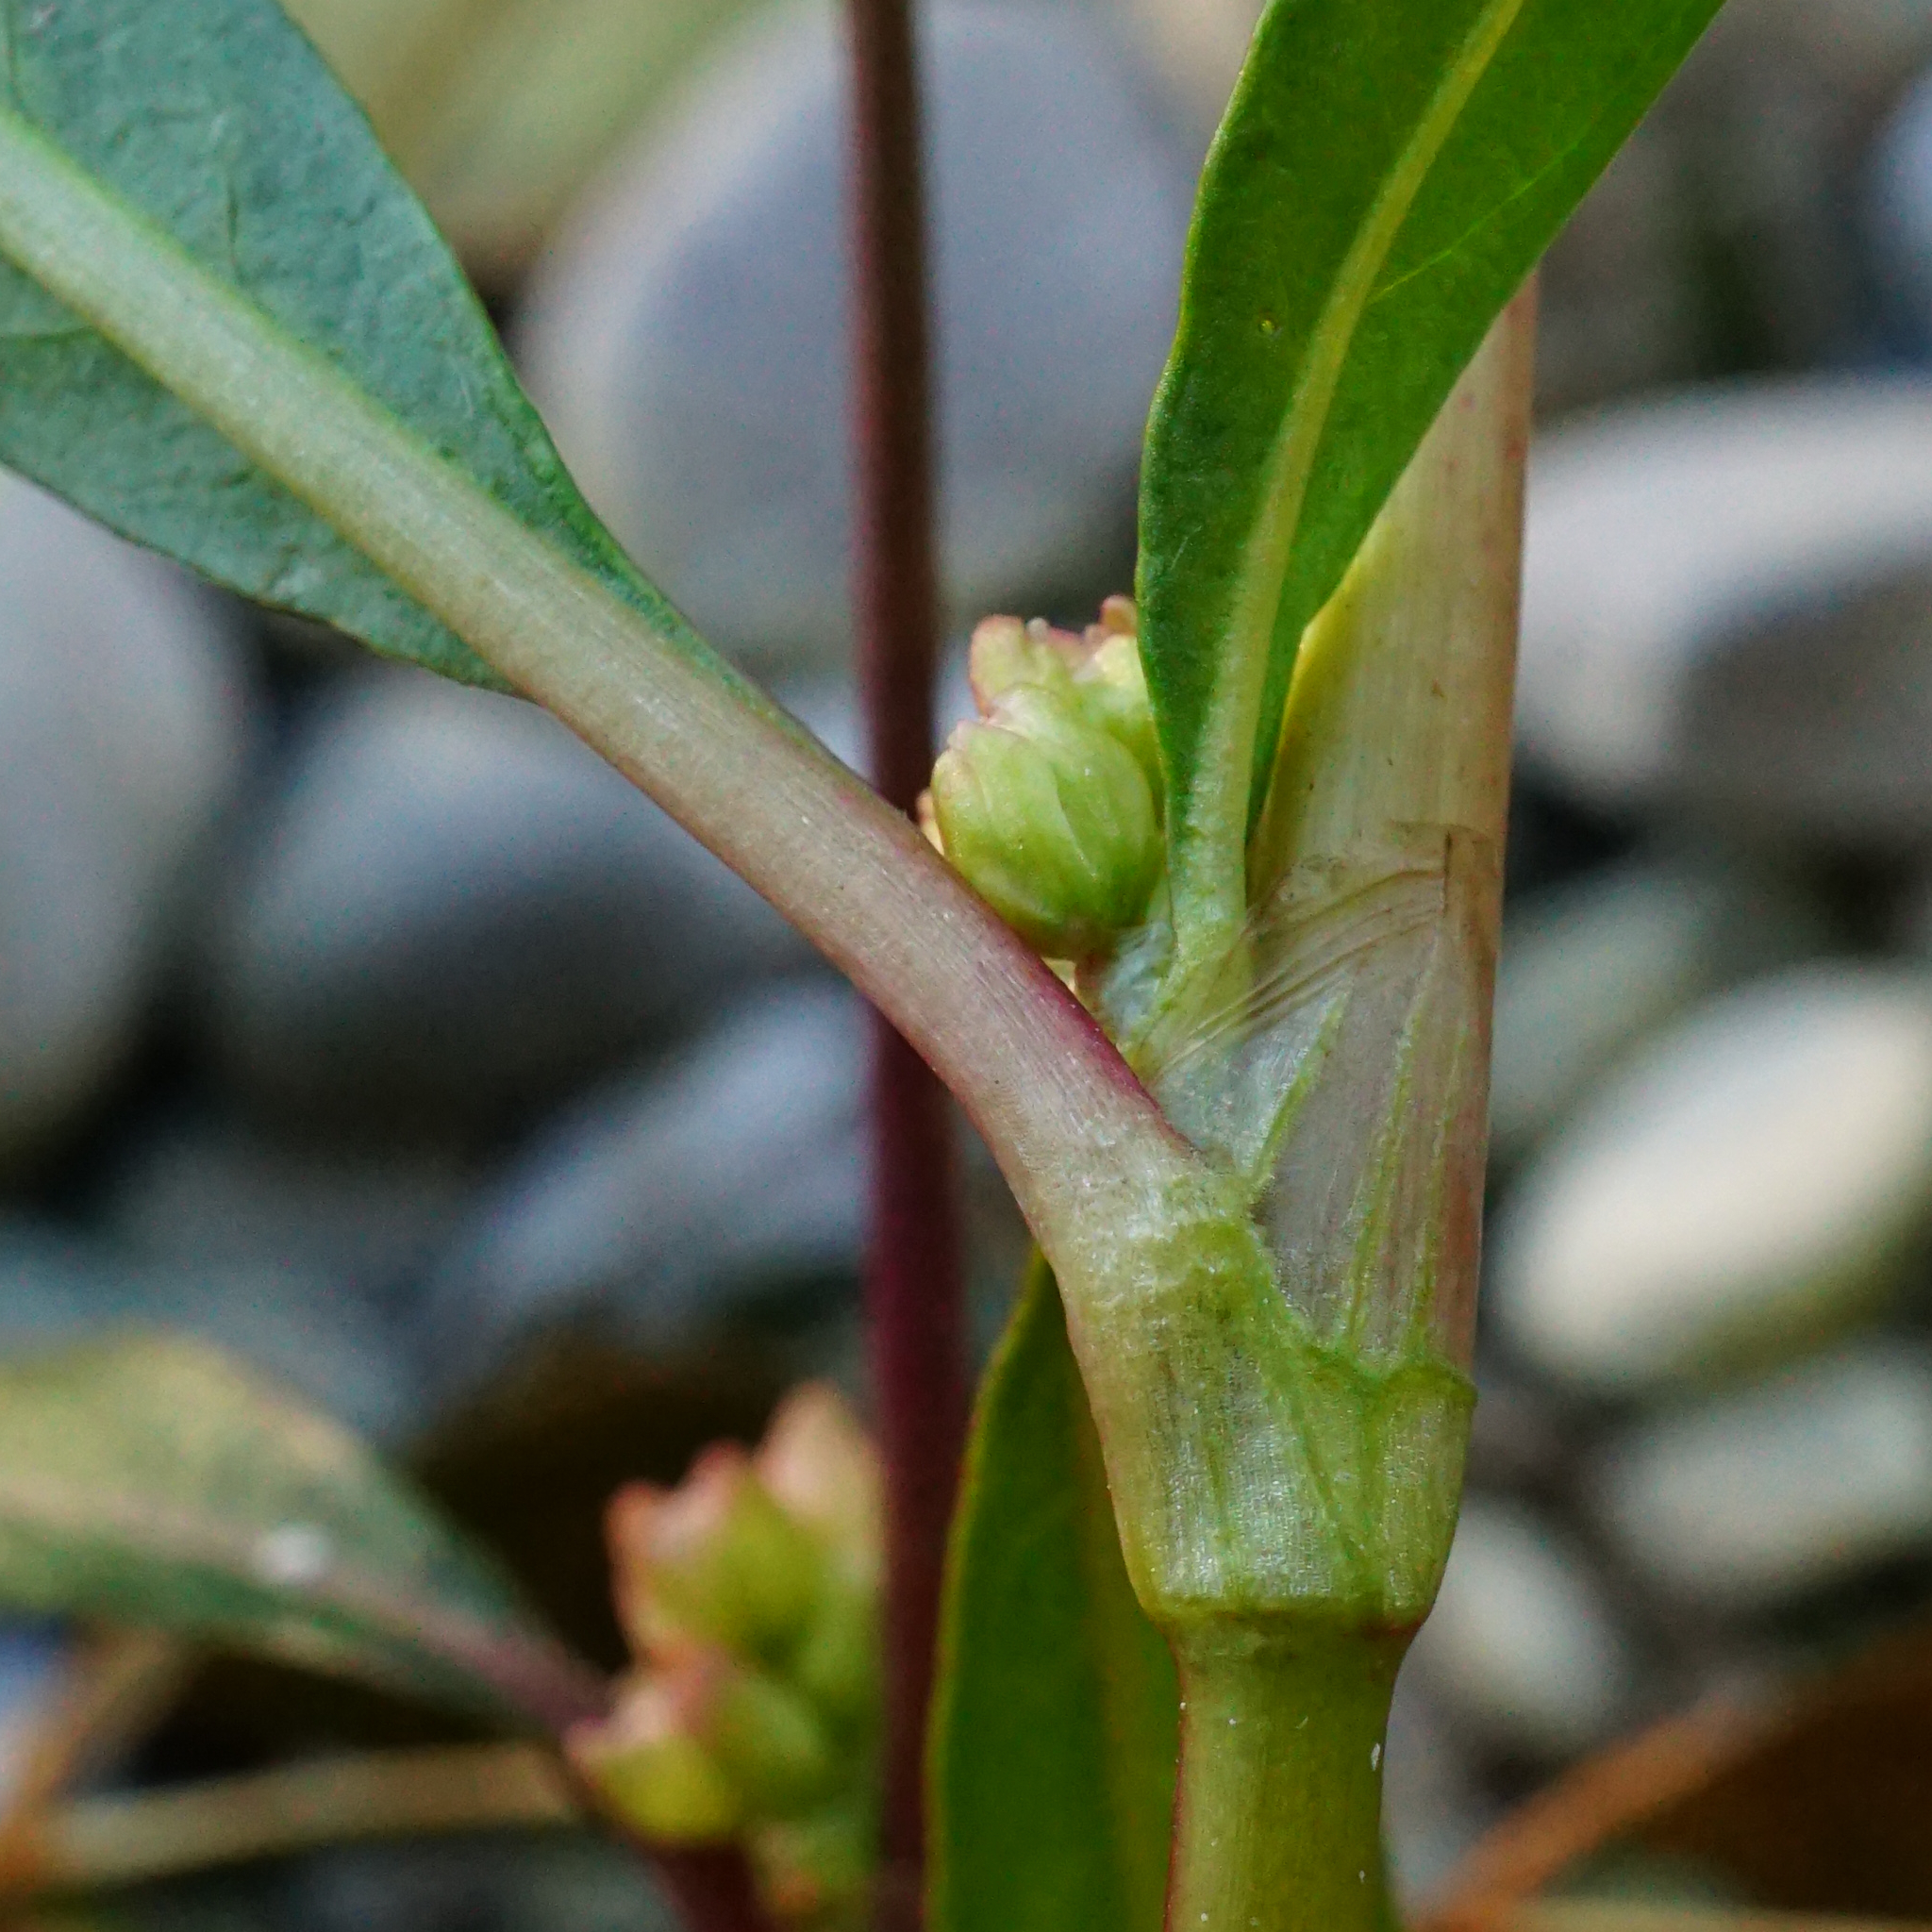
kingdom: Plantae
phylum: Tracheophyta
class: Magnoliopsida
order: Caryophyllales
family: Polygonaceae
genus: Persicaria
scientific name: Persicaria lapathifolia
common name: Curlytop knotweed
